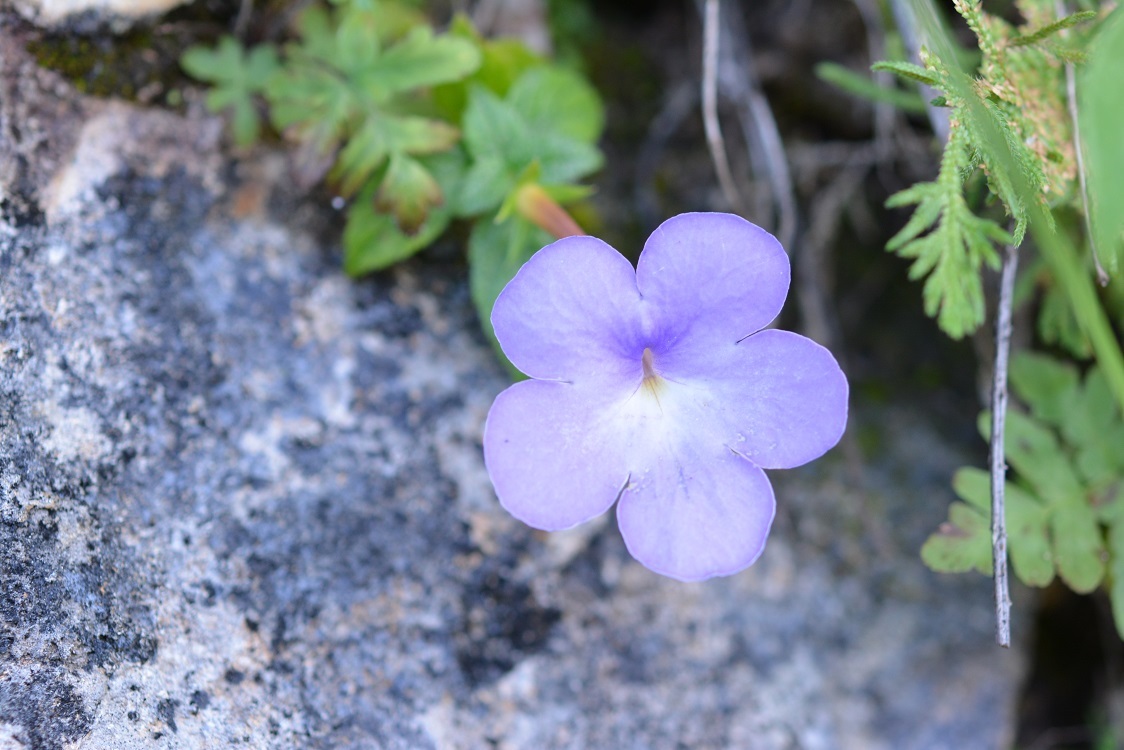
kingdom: Plantae
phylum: Tracheophyta
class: Magnoliopsida
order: Lamiales
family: Gesneriaceae
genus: Achimenes
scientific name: Achimenes longiflora
